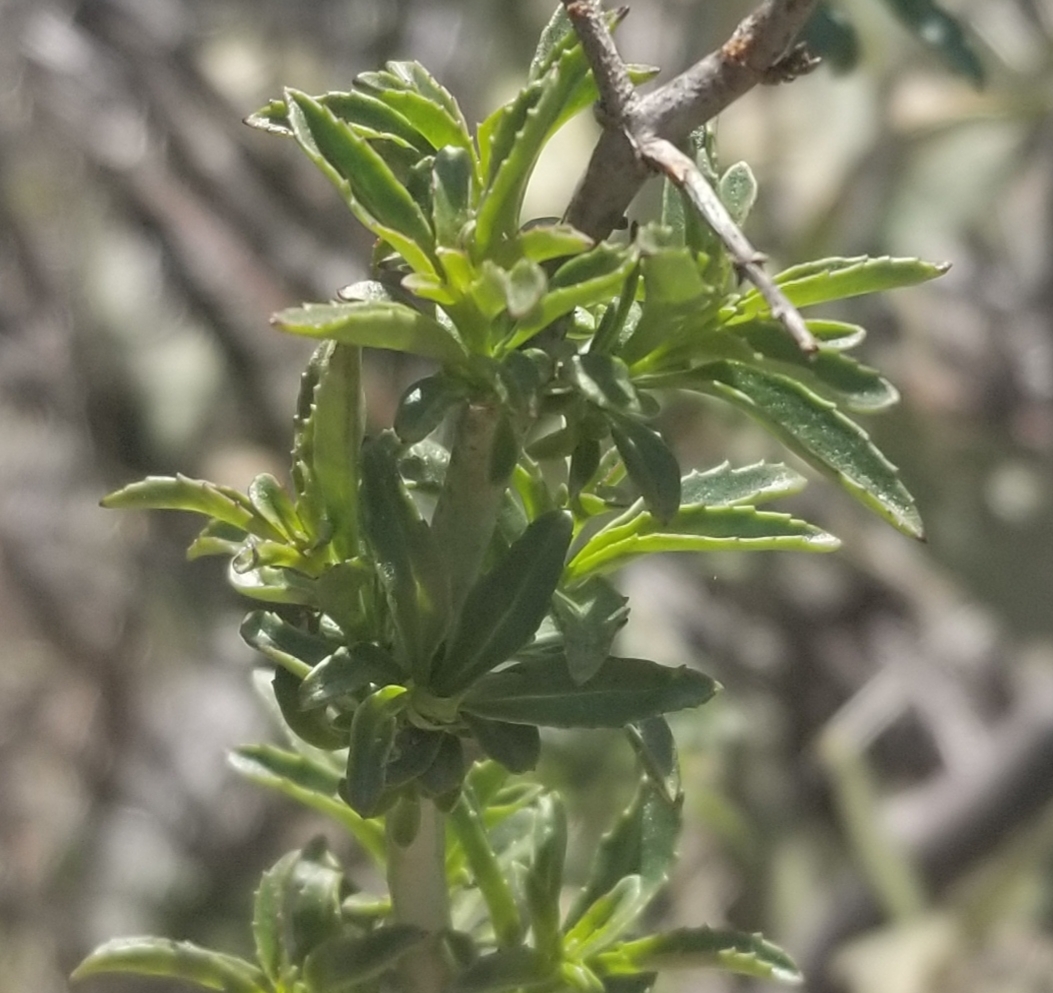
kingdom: Plantae
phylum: Tracheophyta
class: Magnoliopsida
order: Lamiales
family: Plantaginaceae
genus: Keckiella
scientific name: Keckiella ternata
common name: Scarlet keckiella
